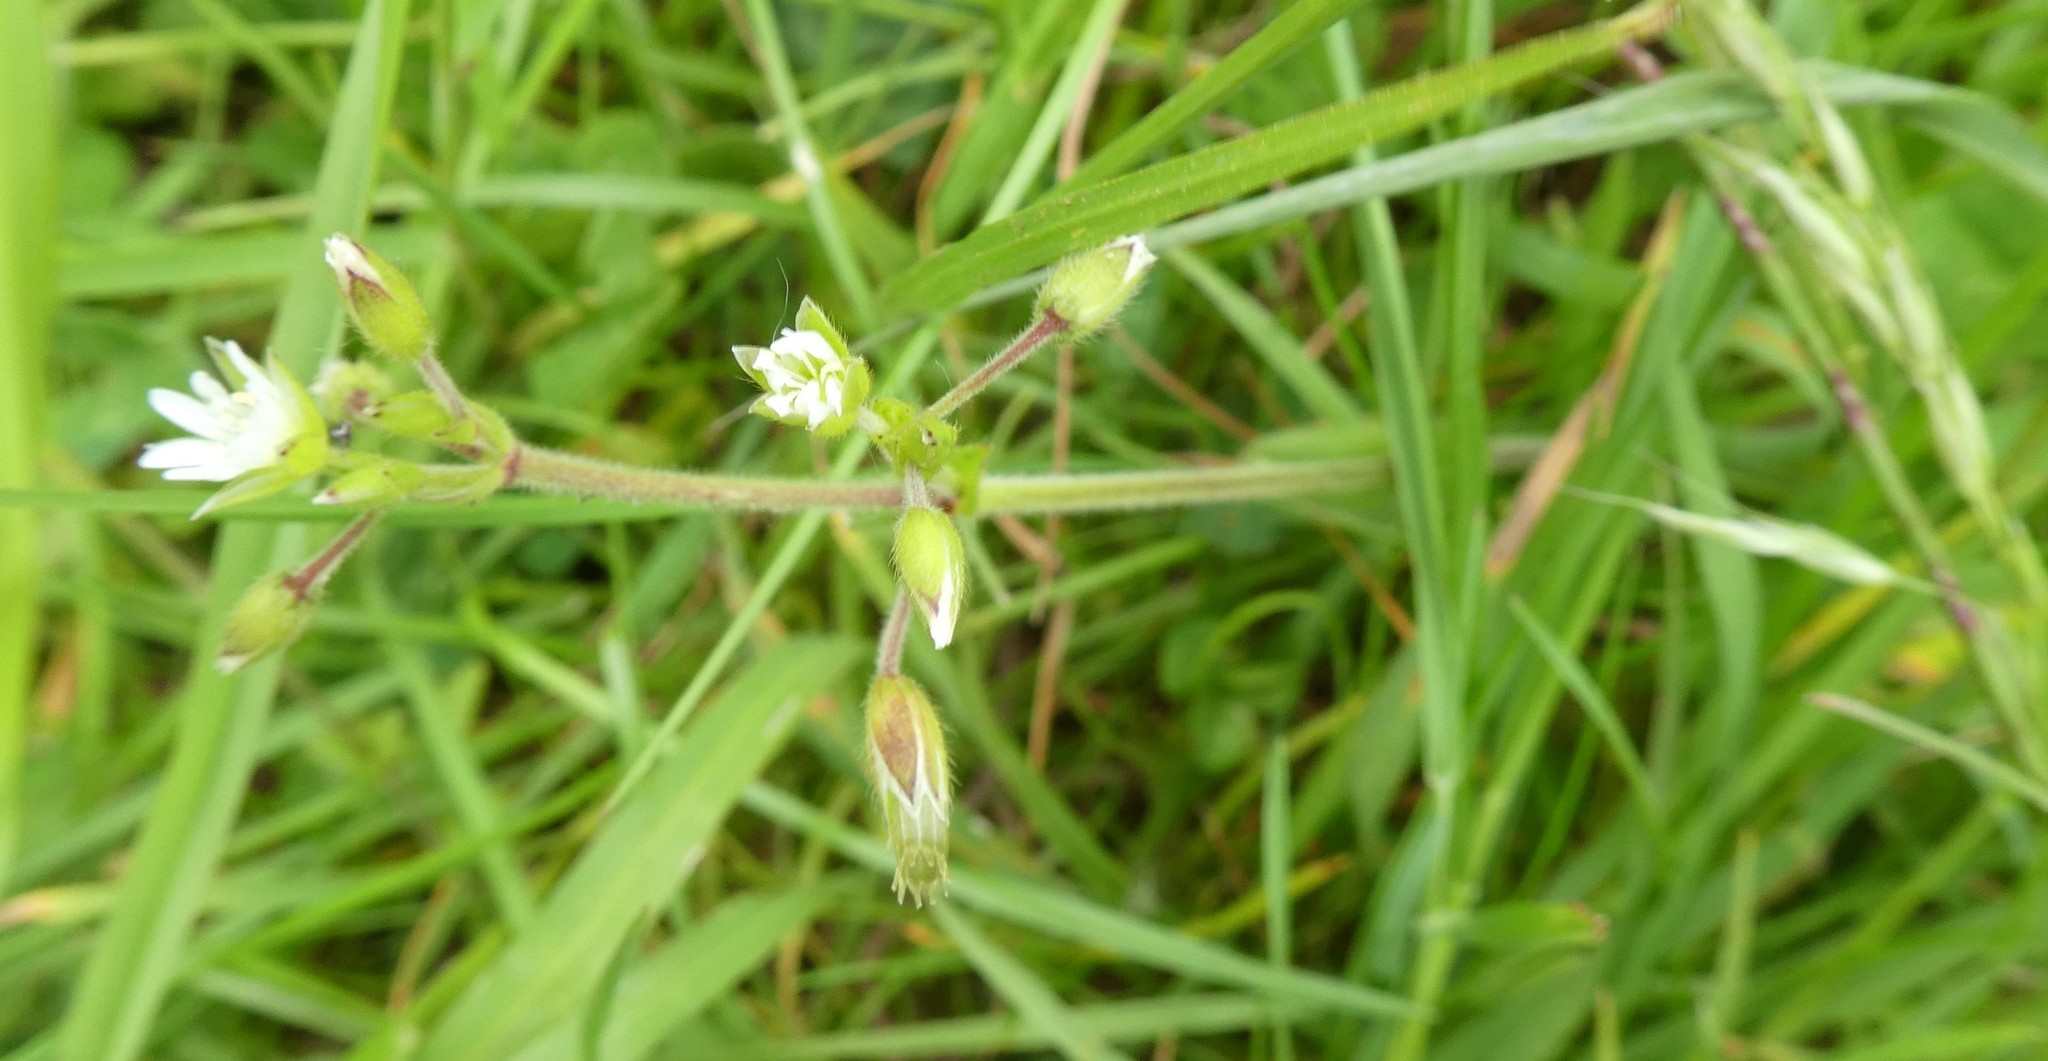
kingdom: Plantae
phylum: Tracheophyta
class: Magnoliopsida
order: Caryophyllales
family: Caryophyllaceae
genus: Cerastium
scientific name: Cerastium fontanum
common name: Common mouse-ear
